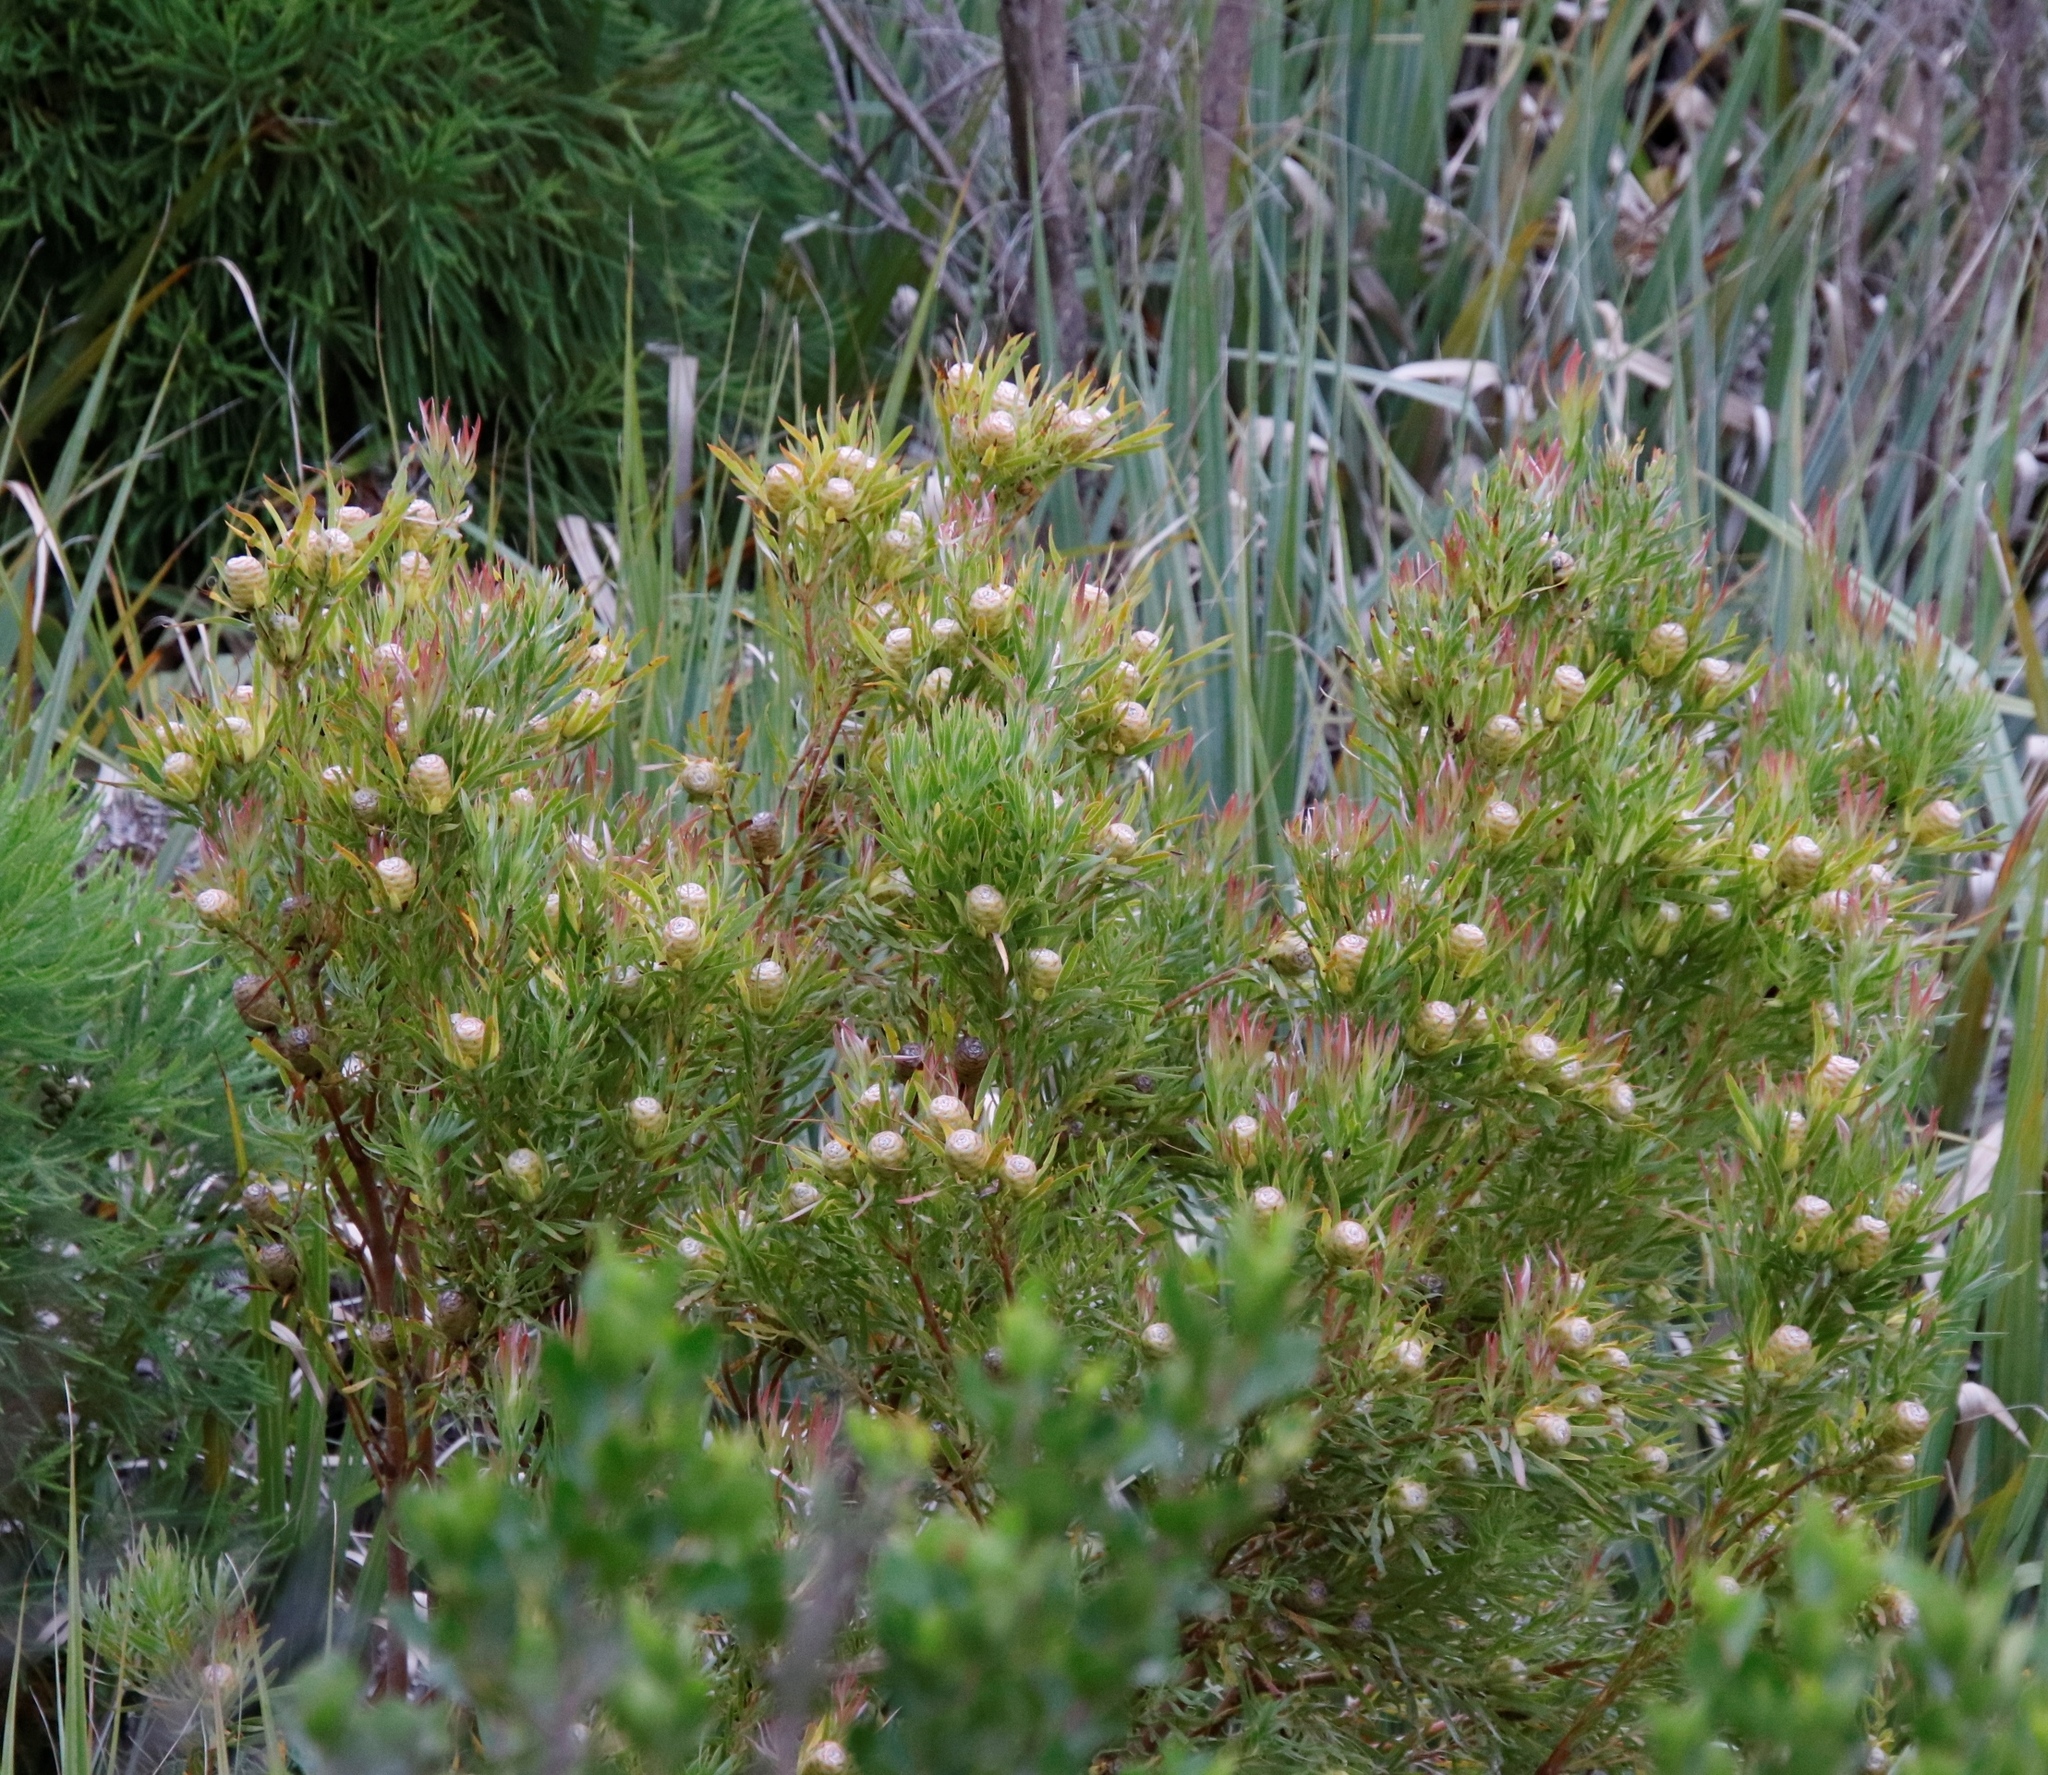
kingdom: Plantae
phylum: Tracheophyta
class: Magnoliopsida
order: Proteales
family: Proteaceae
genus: Leucadendron
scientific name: Leucadendron xanthoconus
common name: Sickle-leaf conebush
